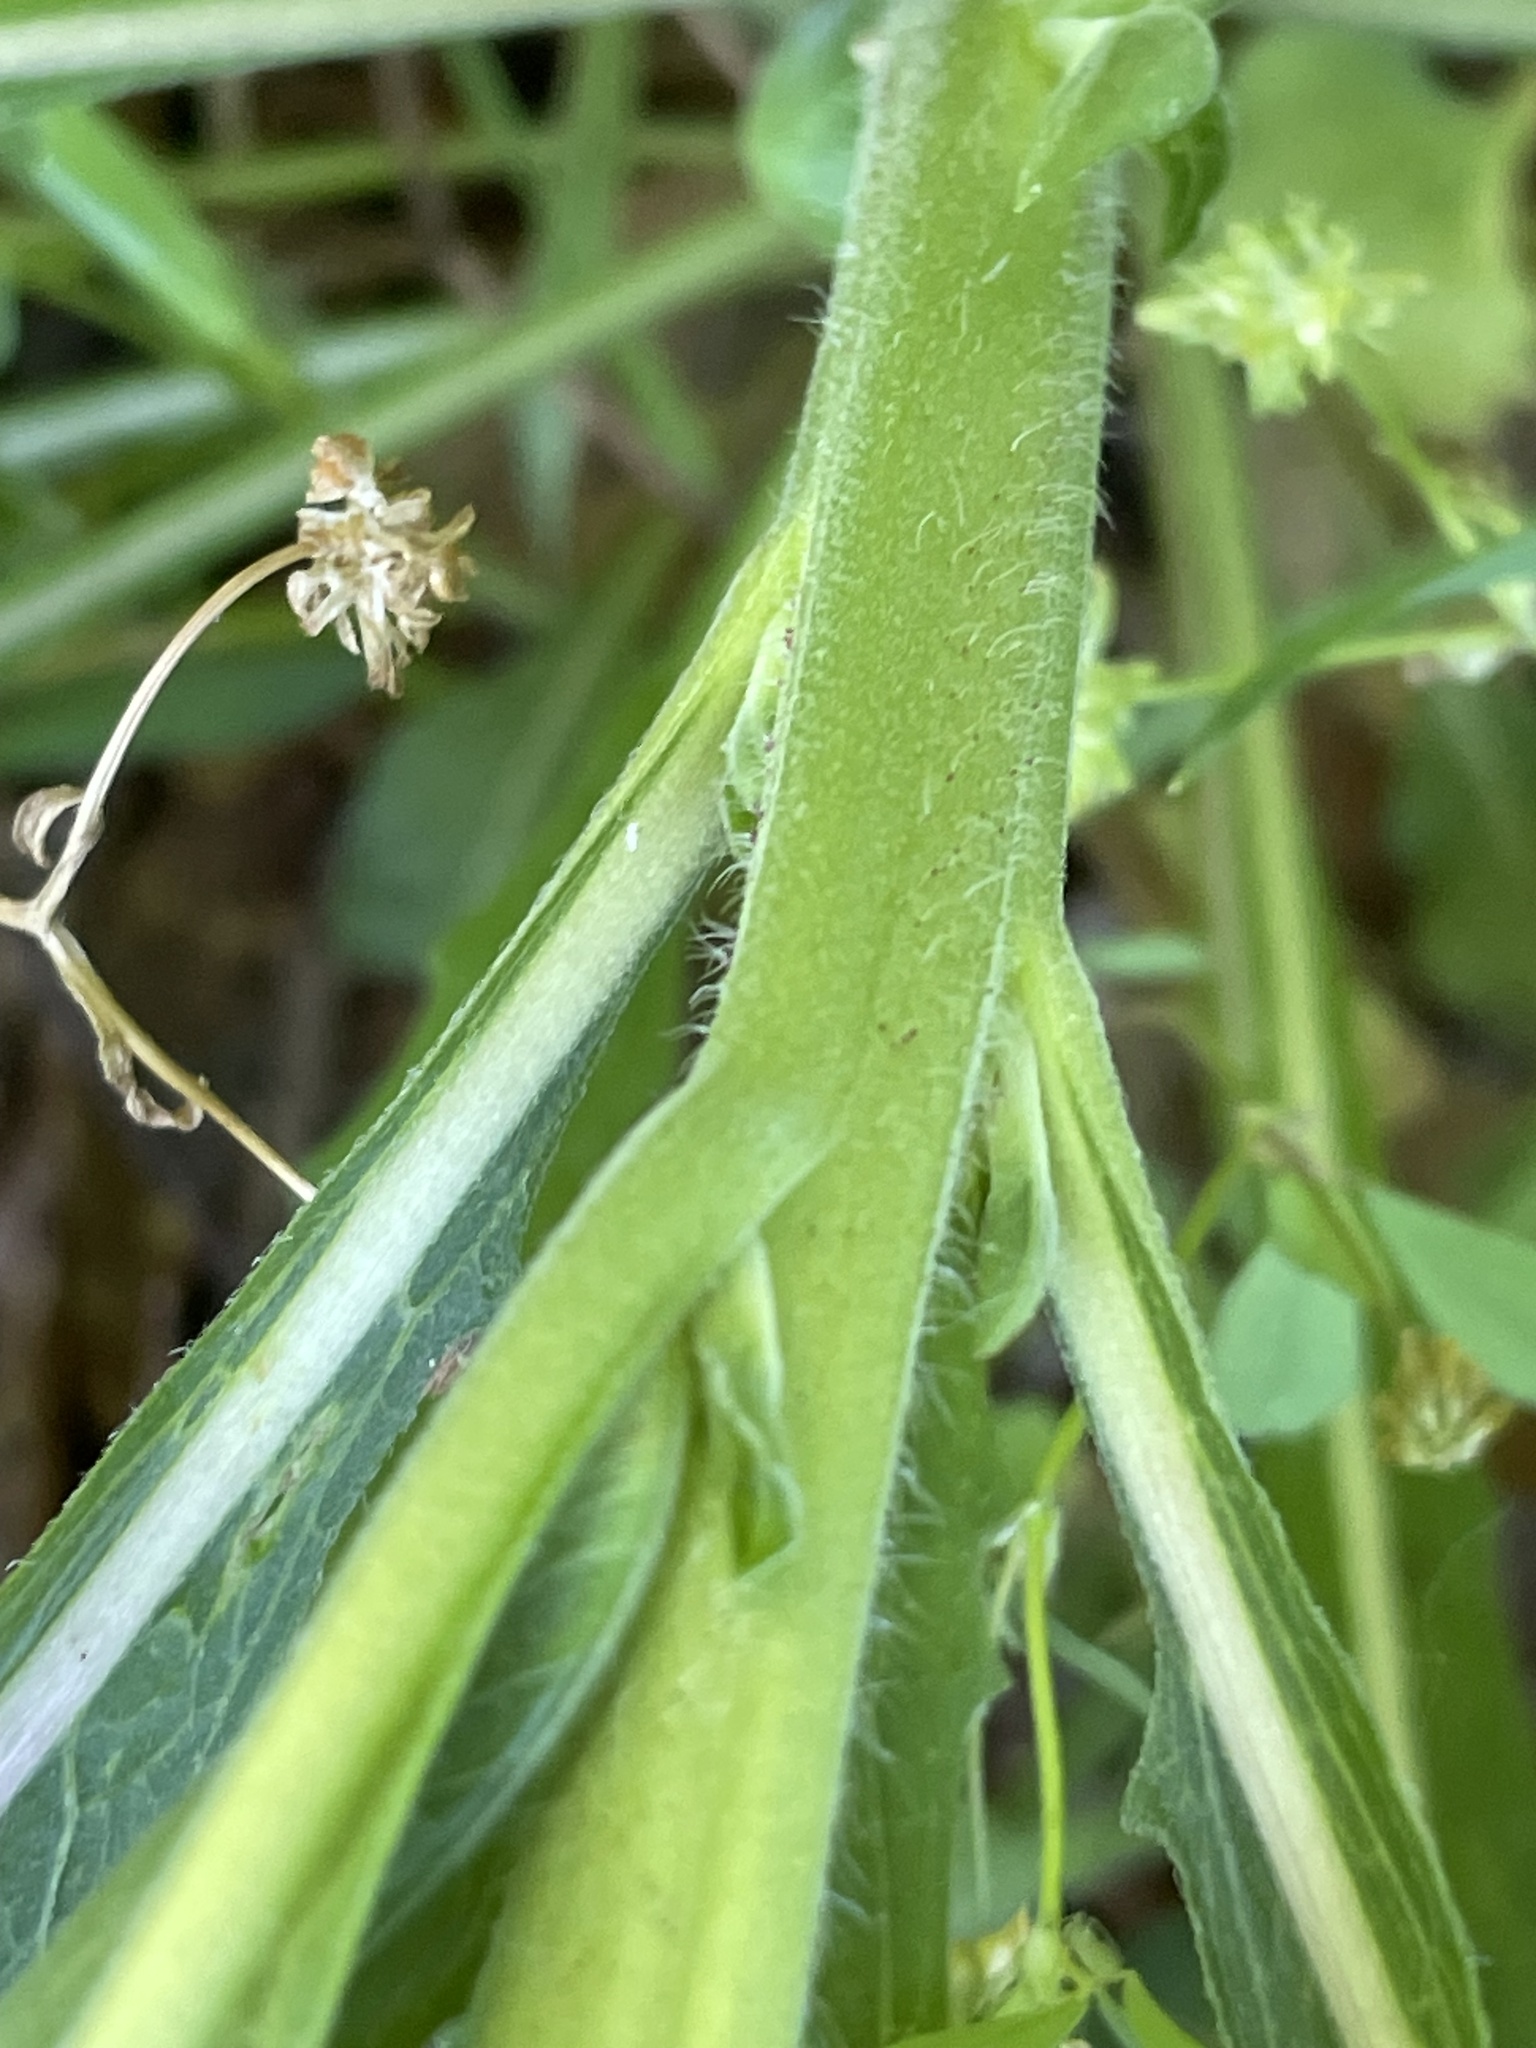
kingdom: Plantae
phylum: Tracheophyta
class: Magnoliopsida
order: Myrtales
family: Onagraceae
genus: Oenothera
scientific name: Oenothera biennis
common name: Common evening-primrose
